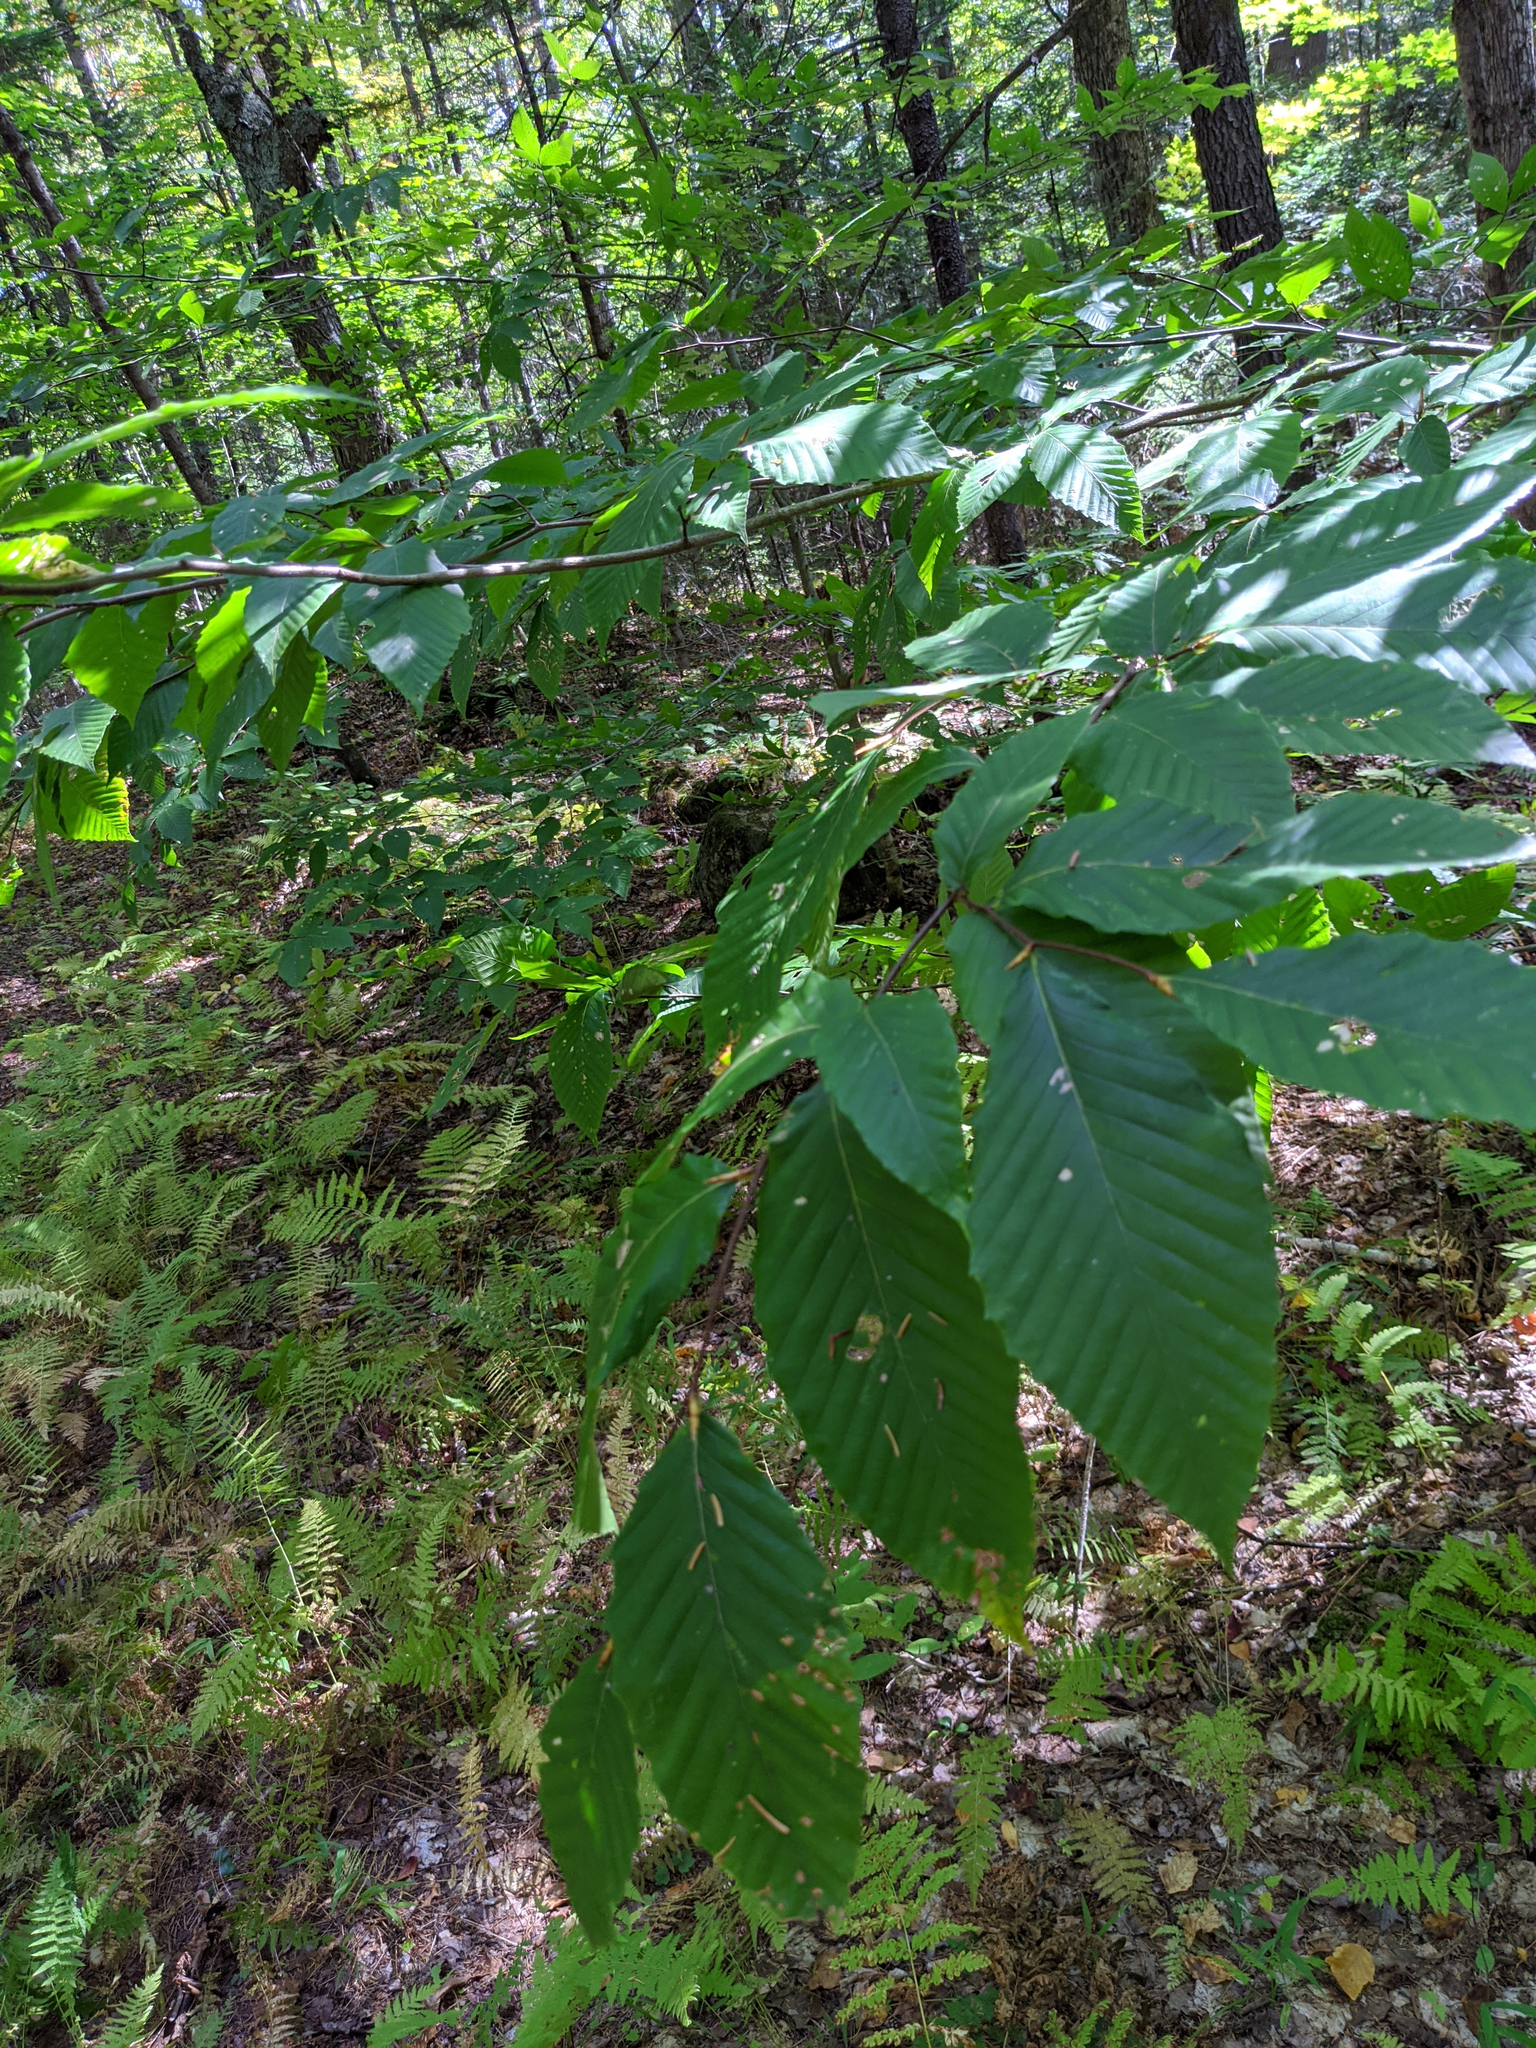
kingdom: Plantae
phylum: Tracheophyta
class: Magnoliopsida
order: Fagales
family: Fagaceae
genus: Fagus
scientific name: Fagus grandifolia
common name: American beech
